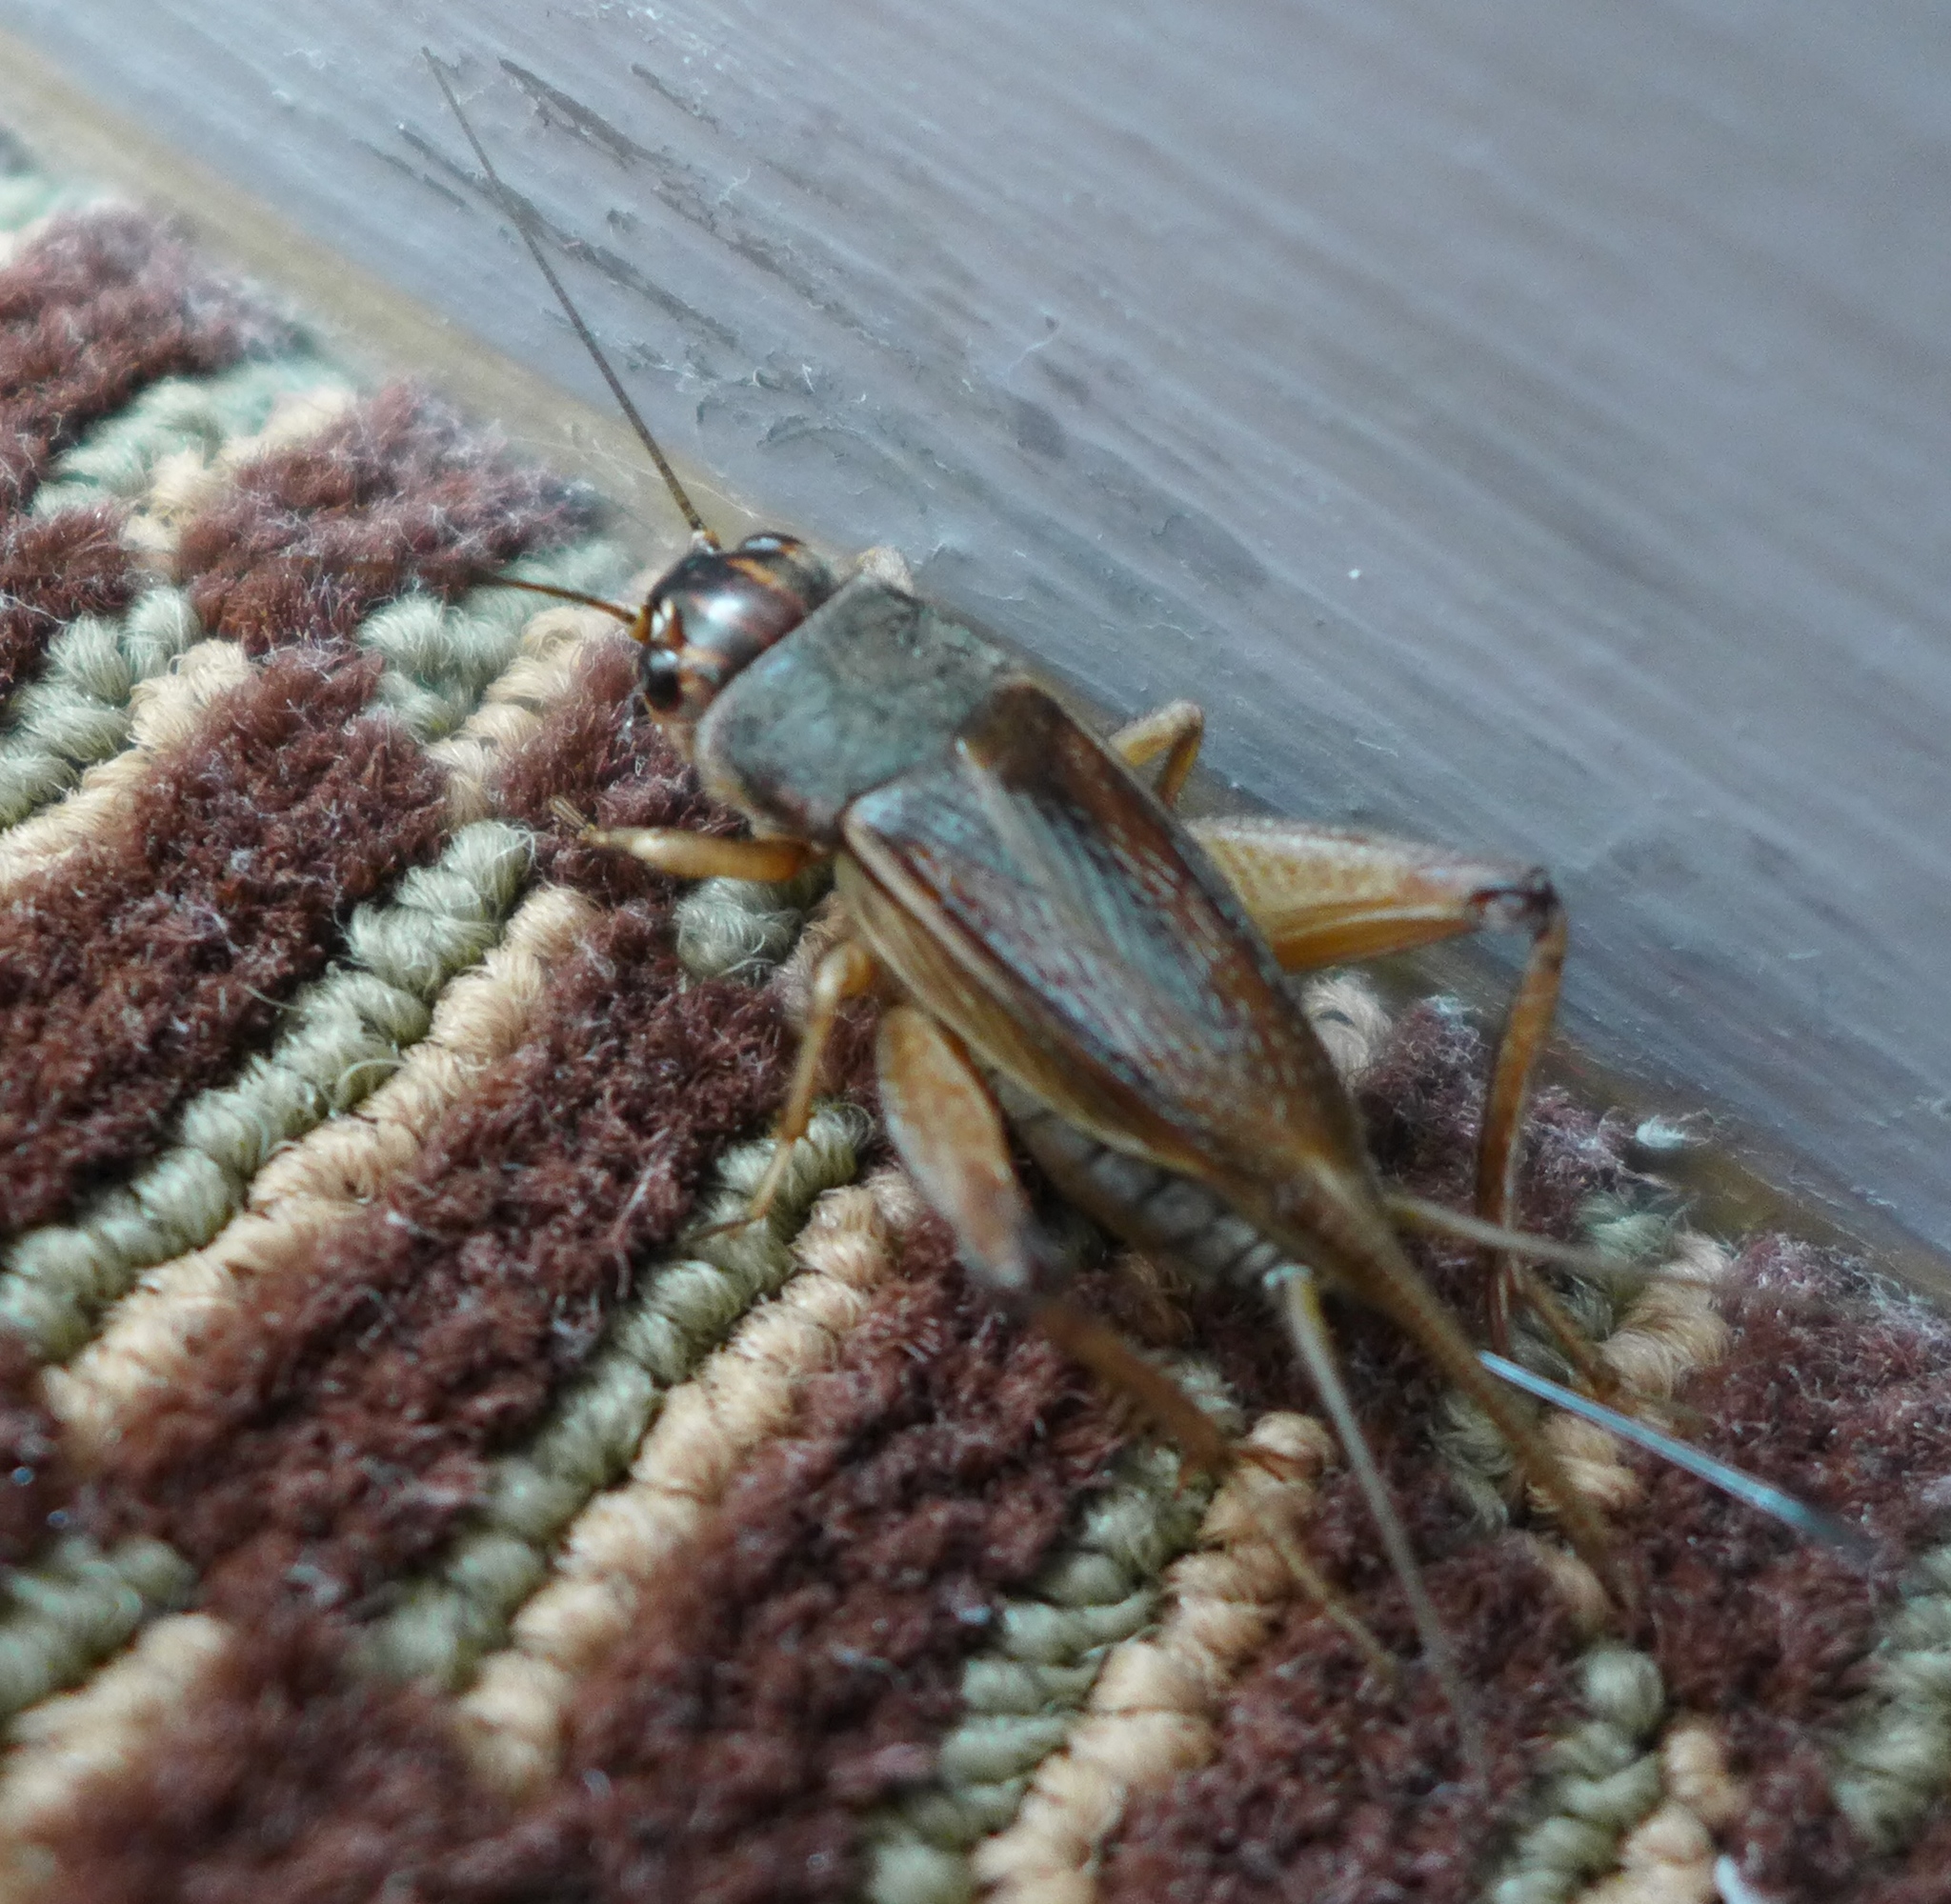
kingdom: Animalia
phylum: Arthropoda
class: Insecta
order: Orthoptera
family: Gryllidae
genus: Gryllus
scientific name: Gryllus assimilis
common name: Jamaican field cricket
